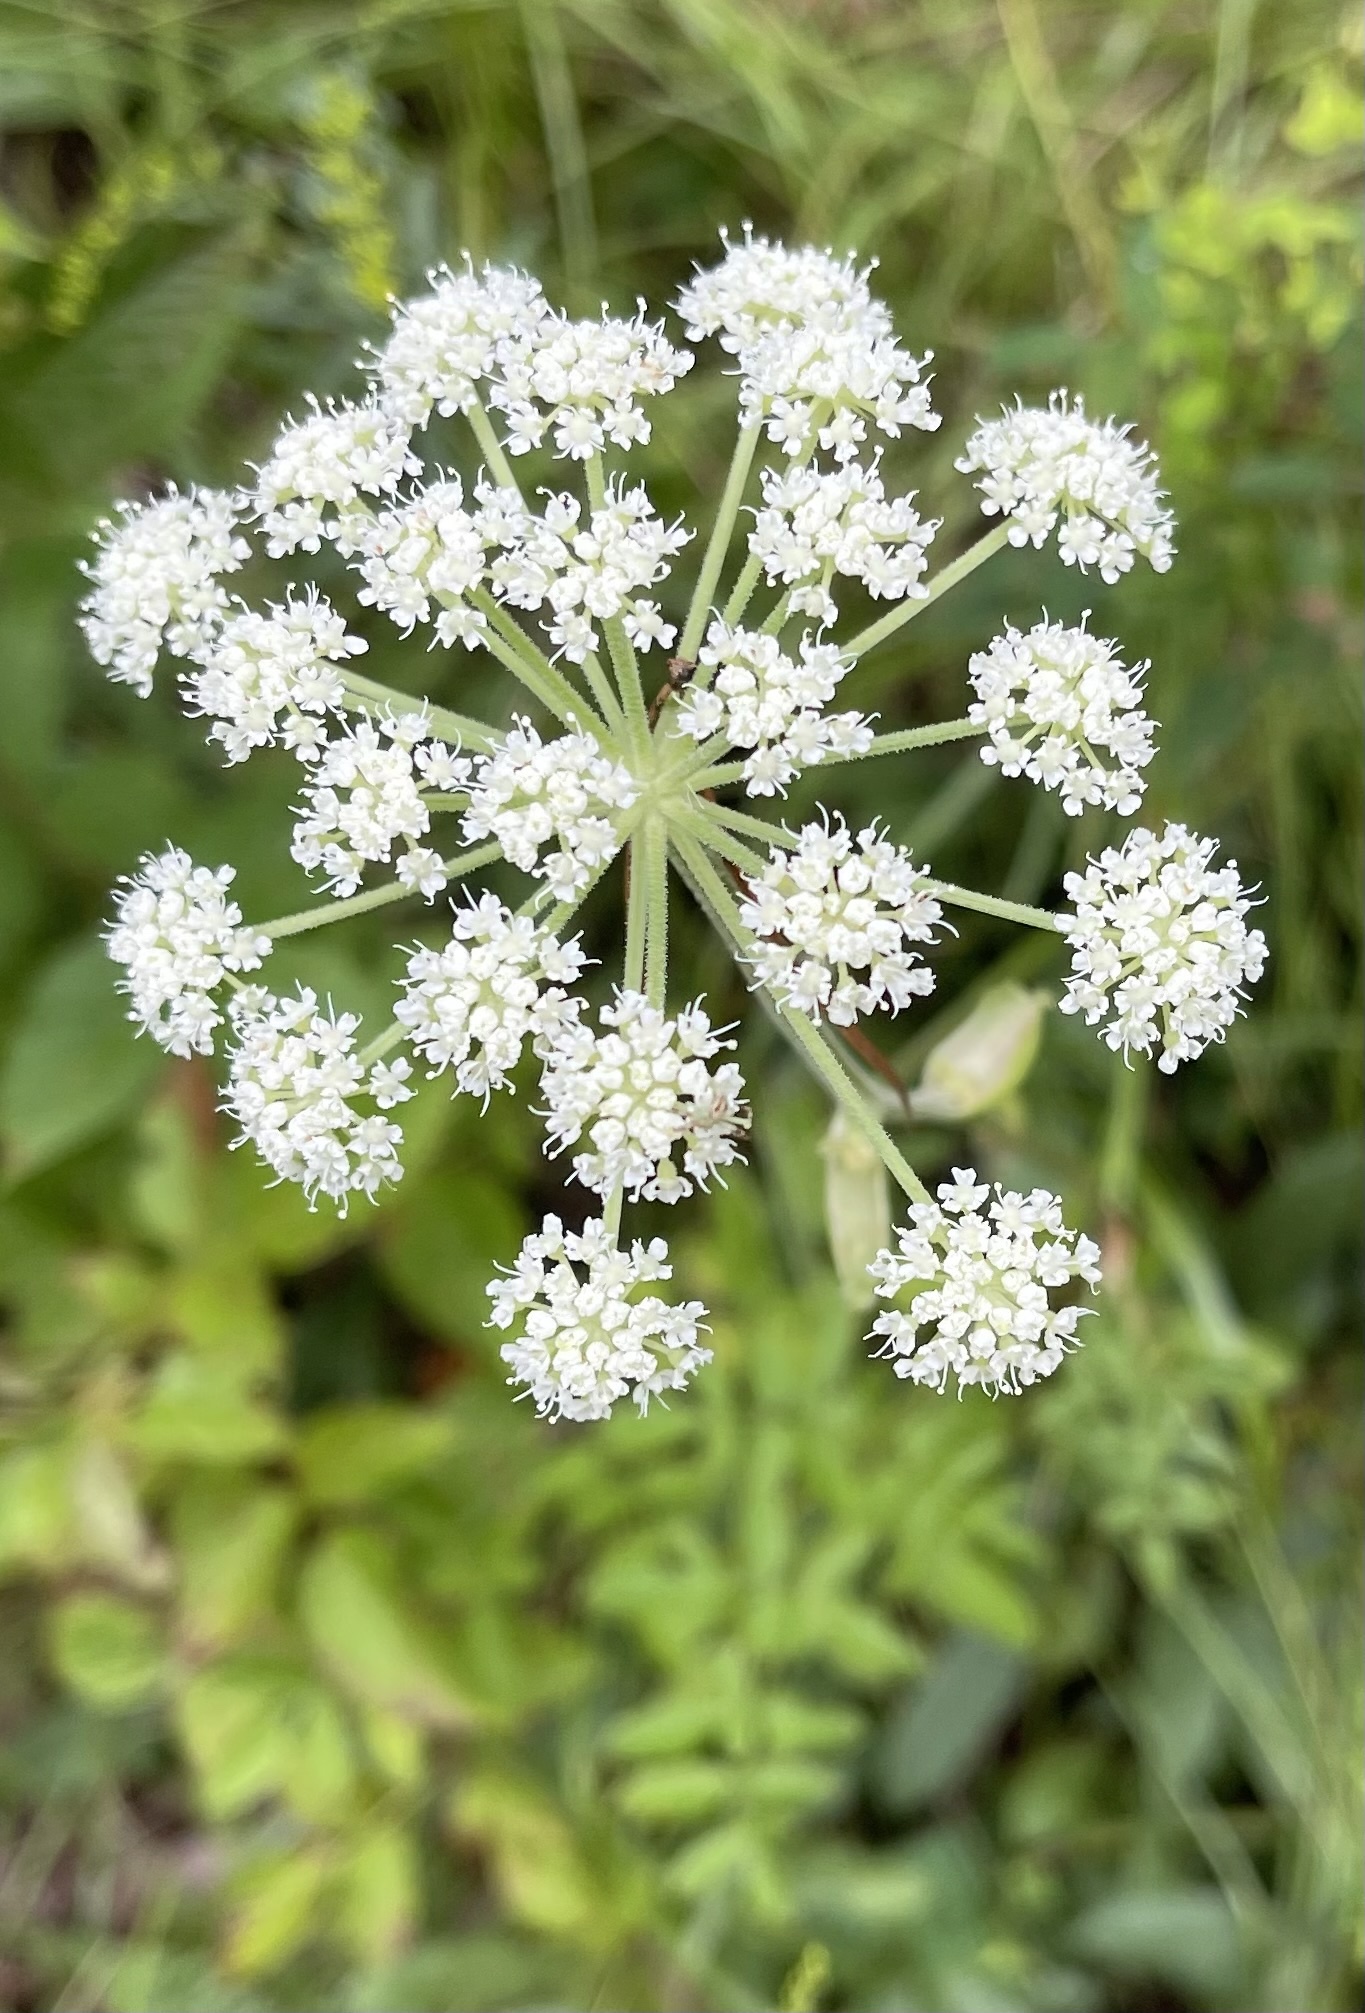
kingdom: Plantae
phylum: Tracheophyta
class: Magnoliopsida
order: Apiales
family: Apiaceae
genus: Angelica
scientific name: Angelica venenosa
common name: Hairy angelica
